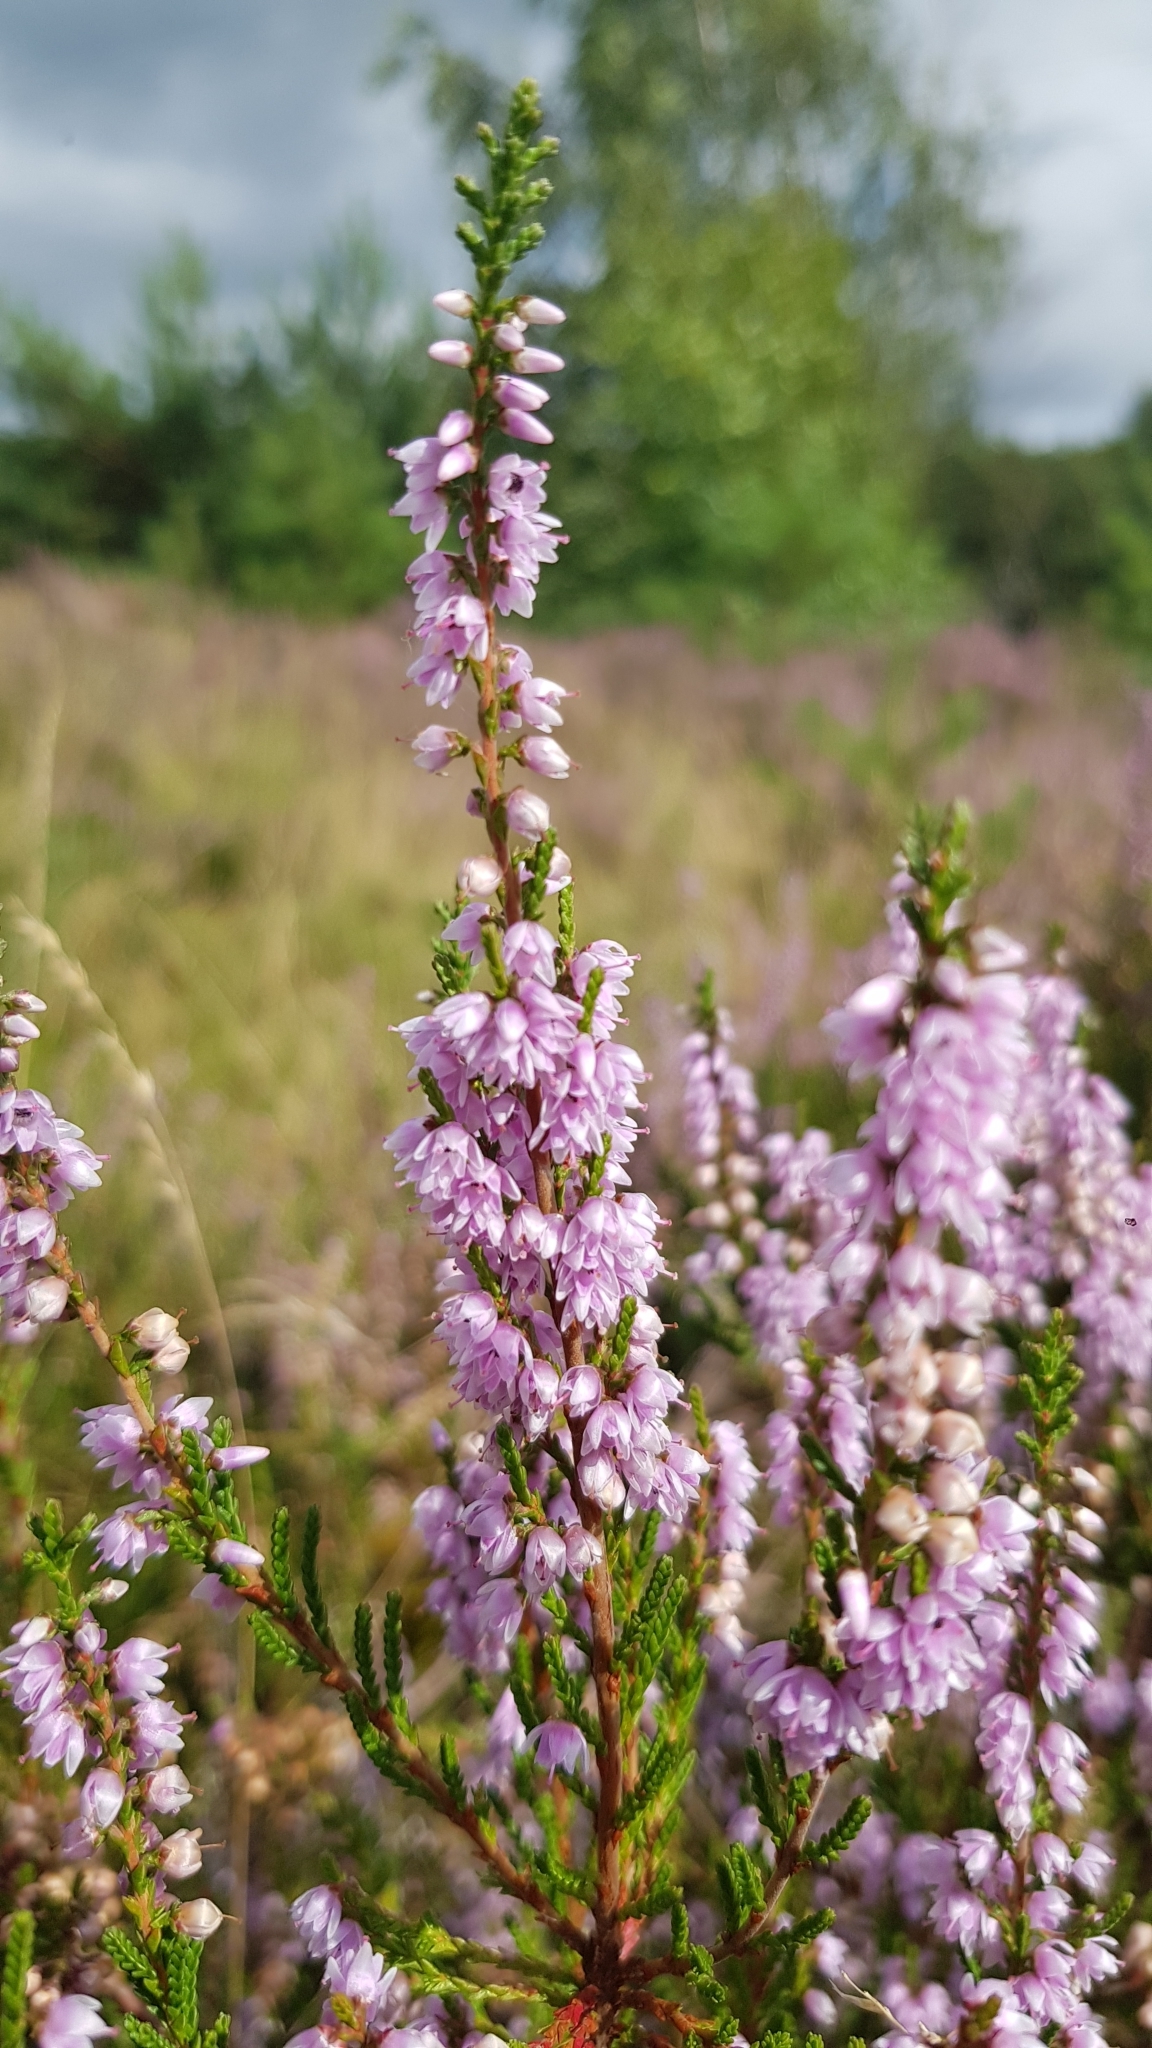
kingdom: Plantae
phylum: Tracheophyta
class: Magnoliopsida
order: Ericales
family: Ericaceae
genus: Calluna
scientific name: Calluna vulgaris
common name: Heather
